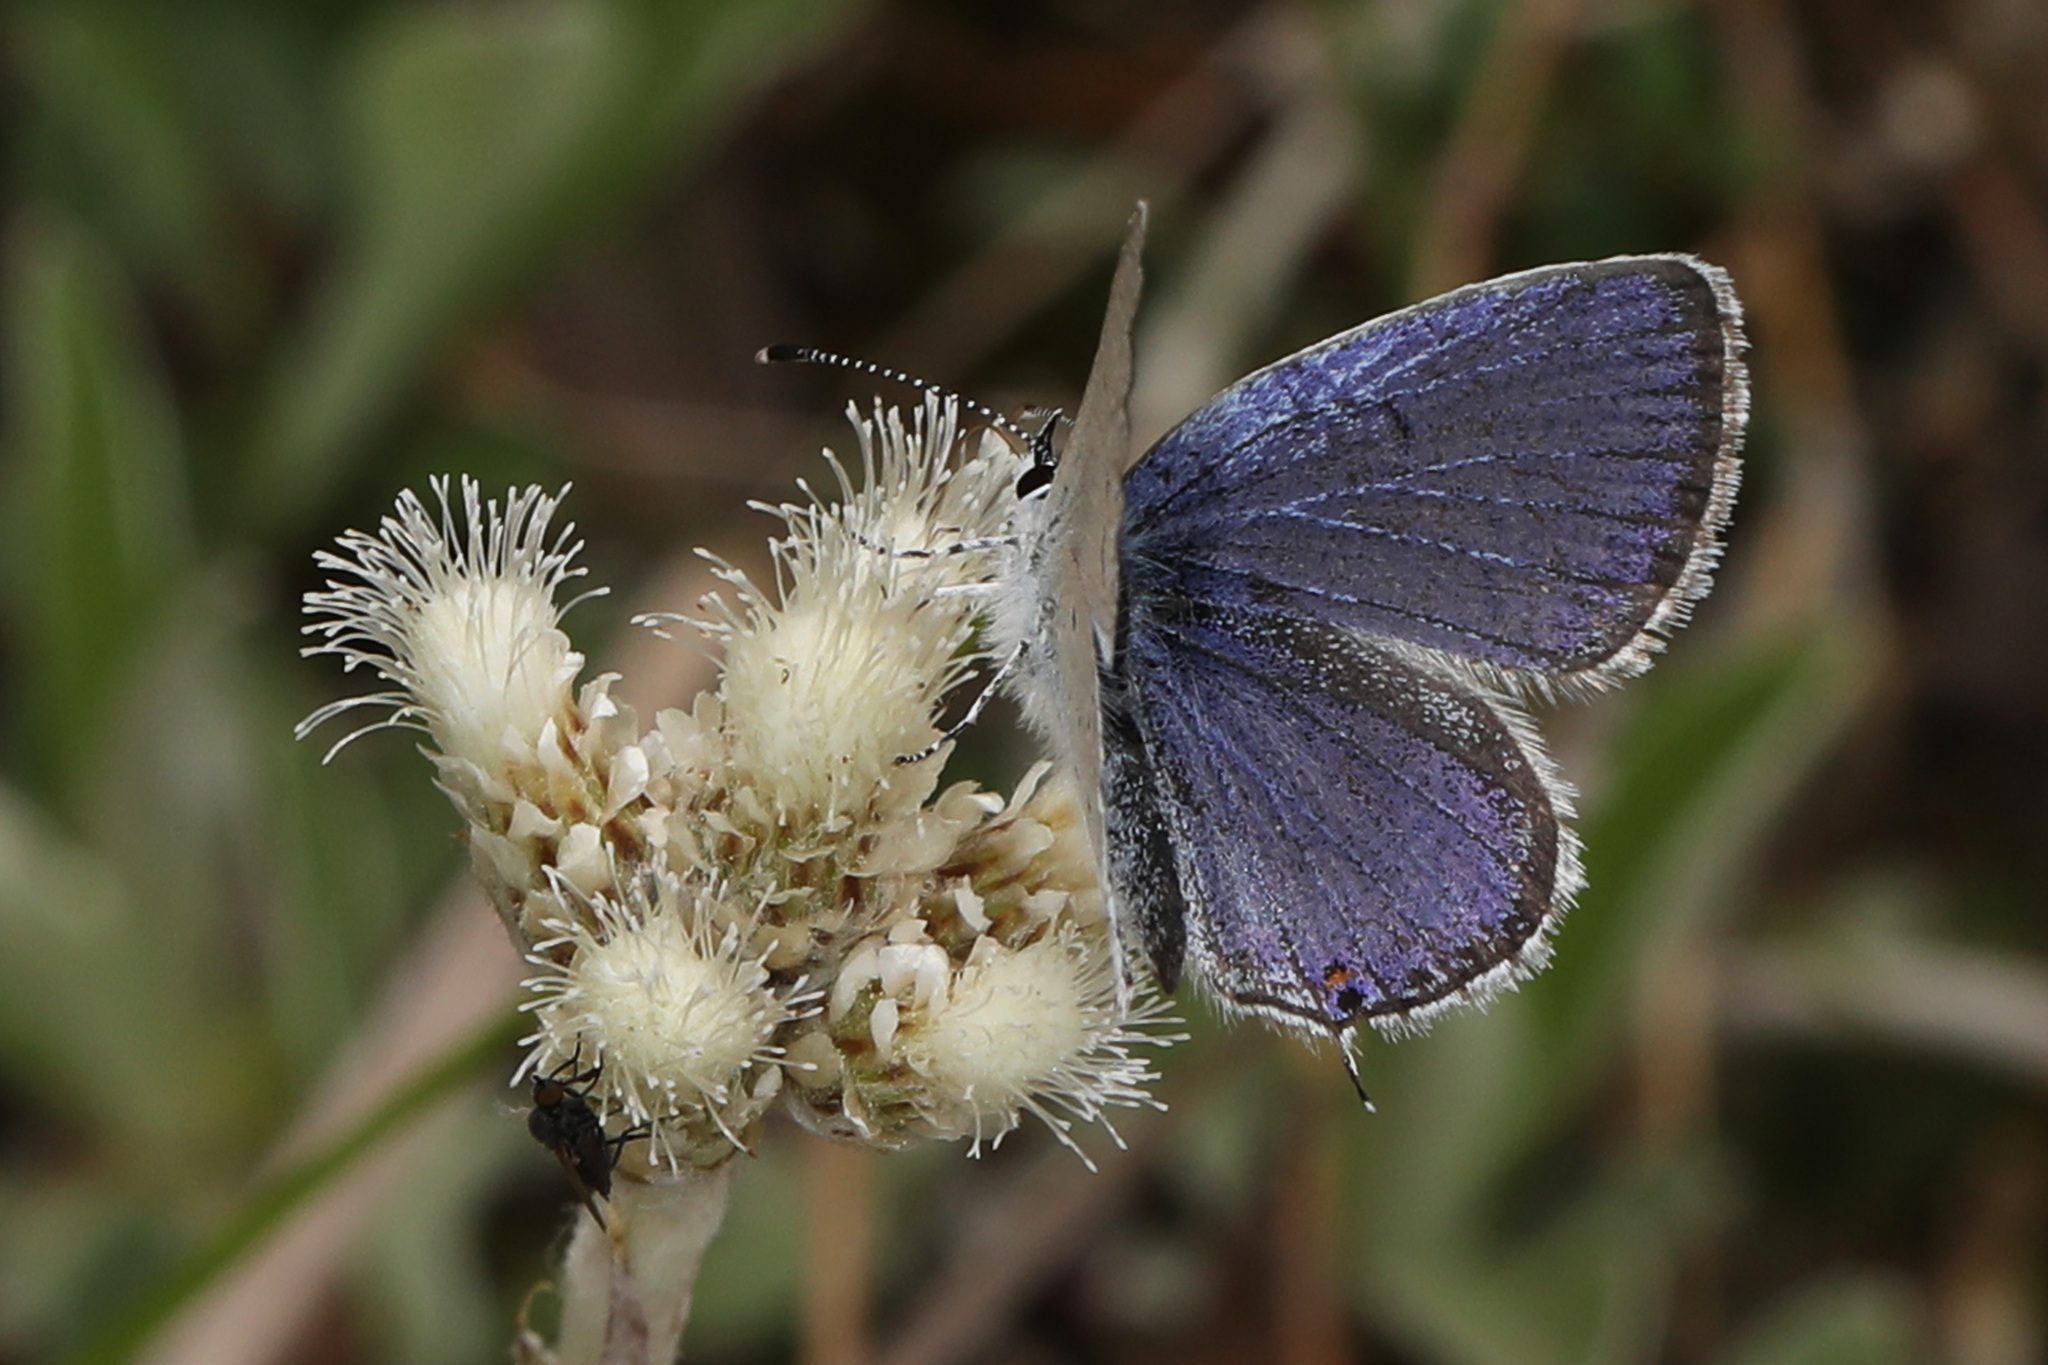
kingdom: Animalia
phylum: Arthropoda
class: Insecta
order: Lepidoptera
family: Lycaenidae
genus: Elkalyce
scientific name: Elkalyce comyntas
